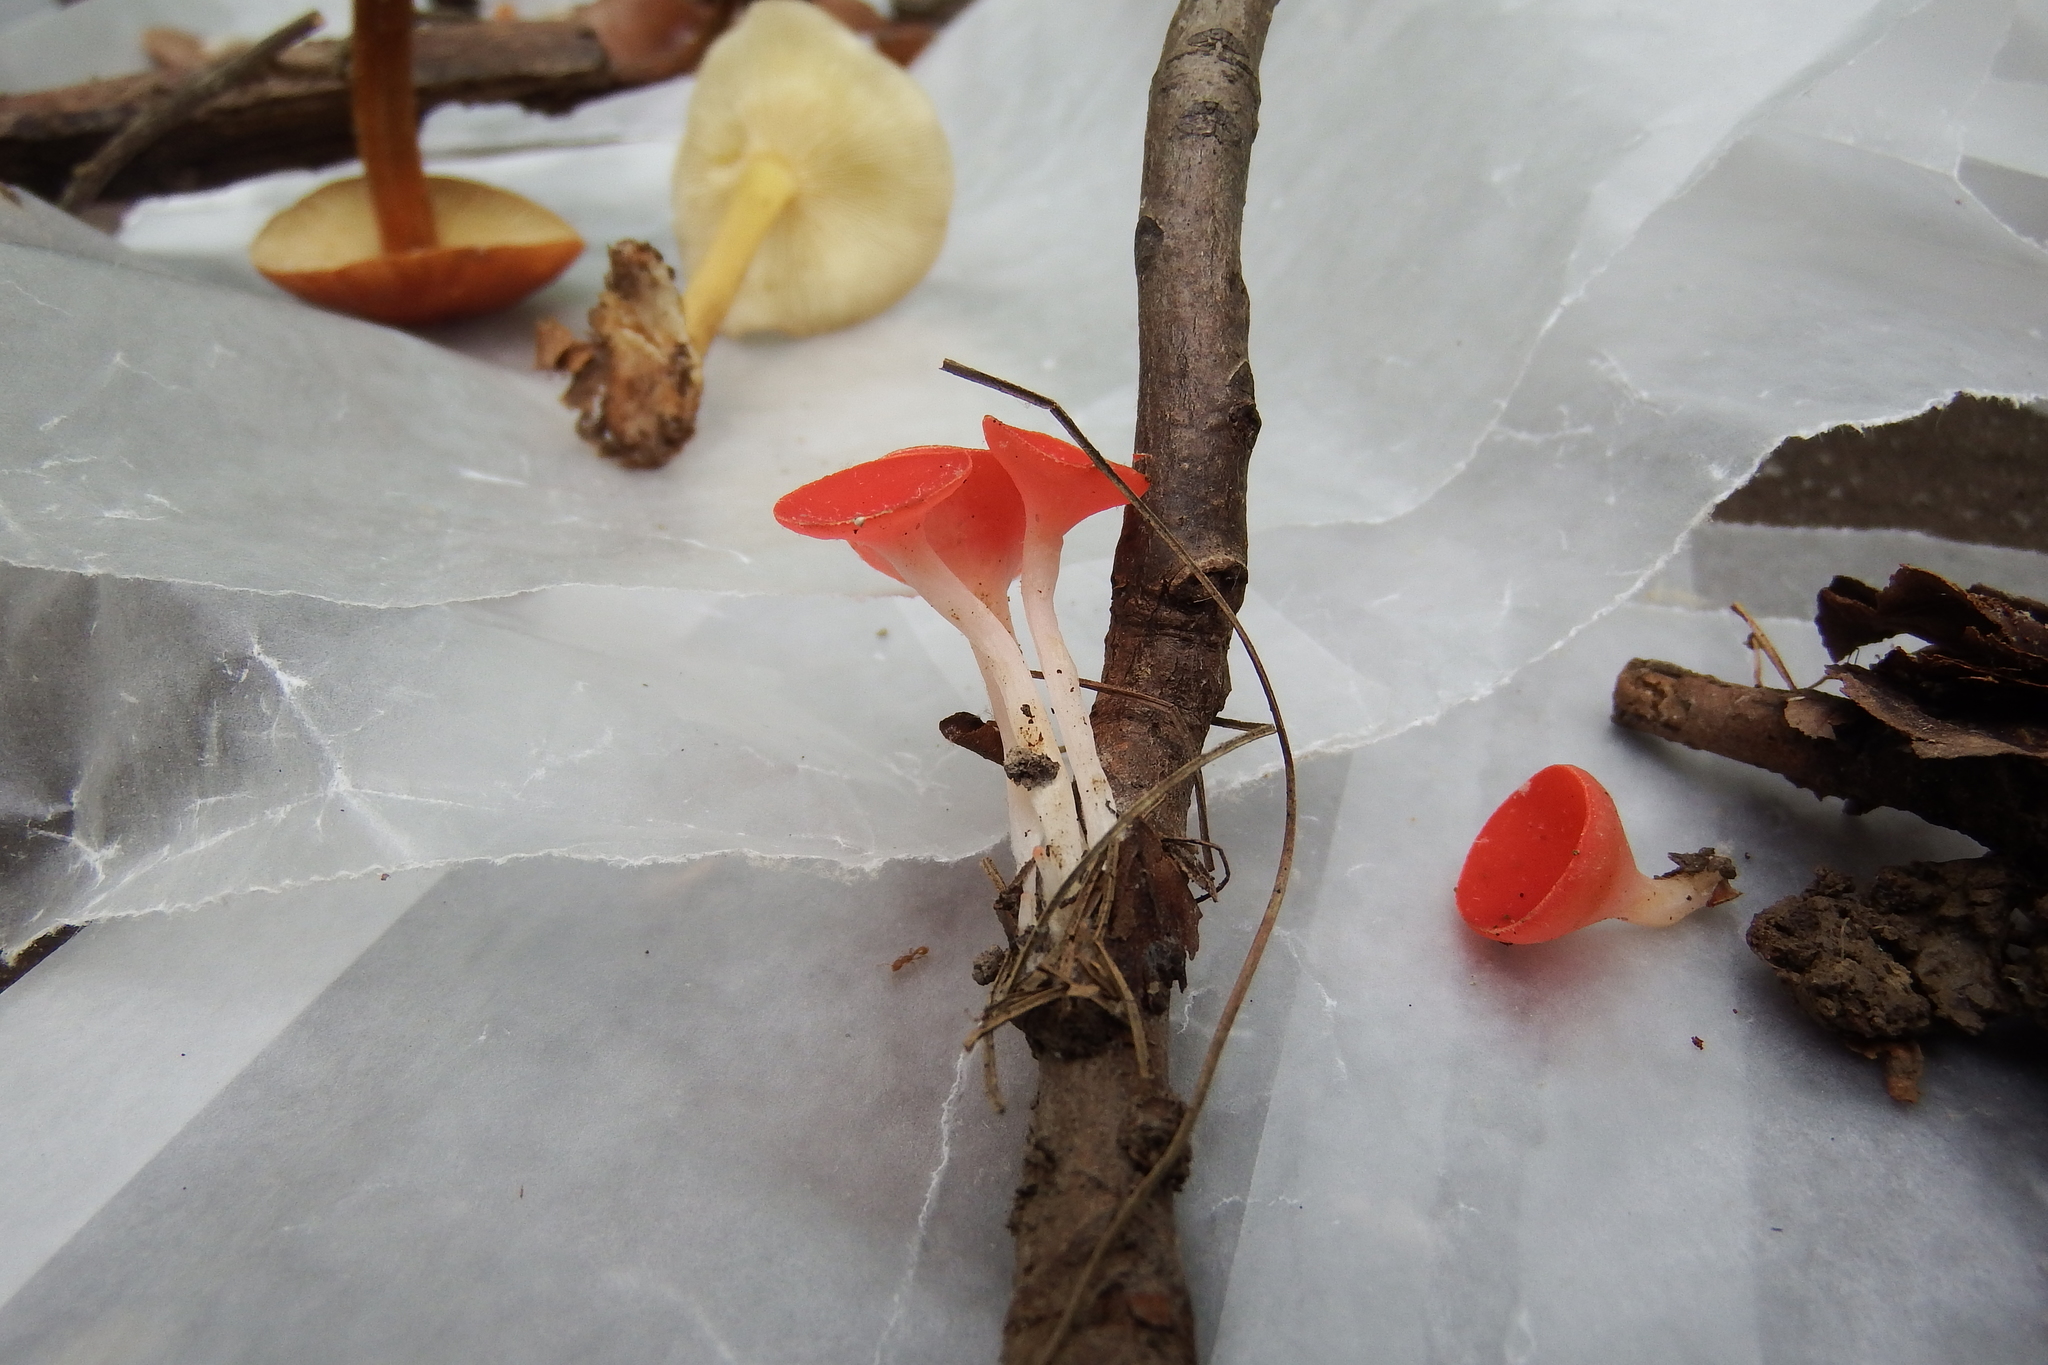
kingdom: Fungi
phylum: Ascomycota
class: Pezizomycetes
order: Pezizales
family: Sarcoscyphaceae
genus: Sarcoscypha
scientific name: Sarcoscypha occidentalis
